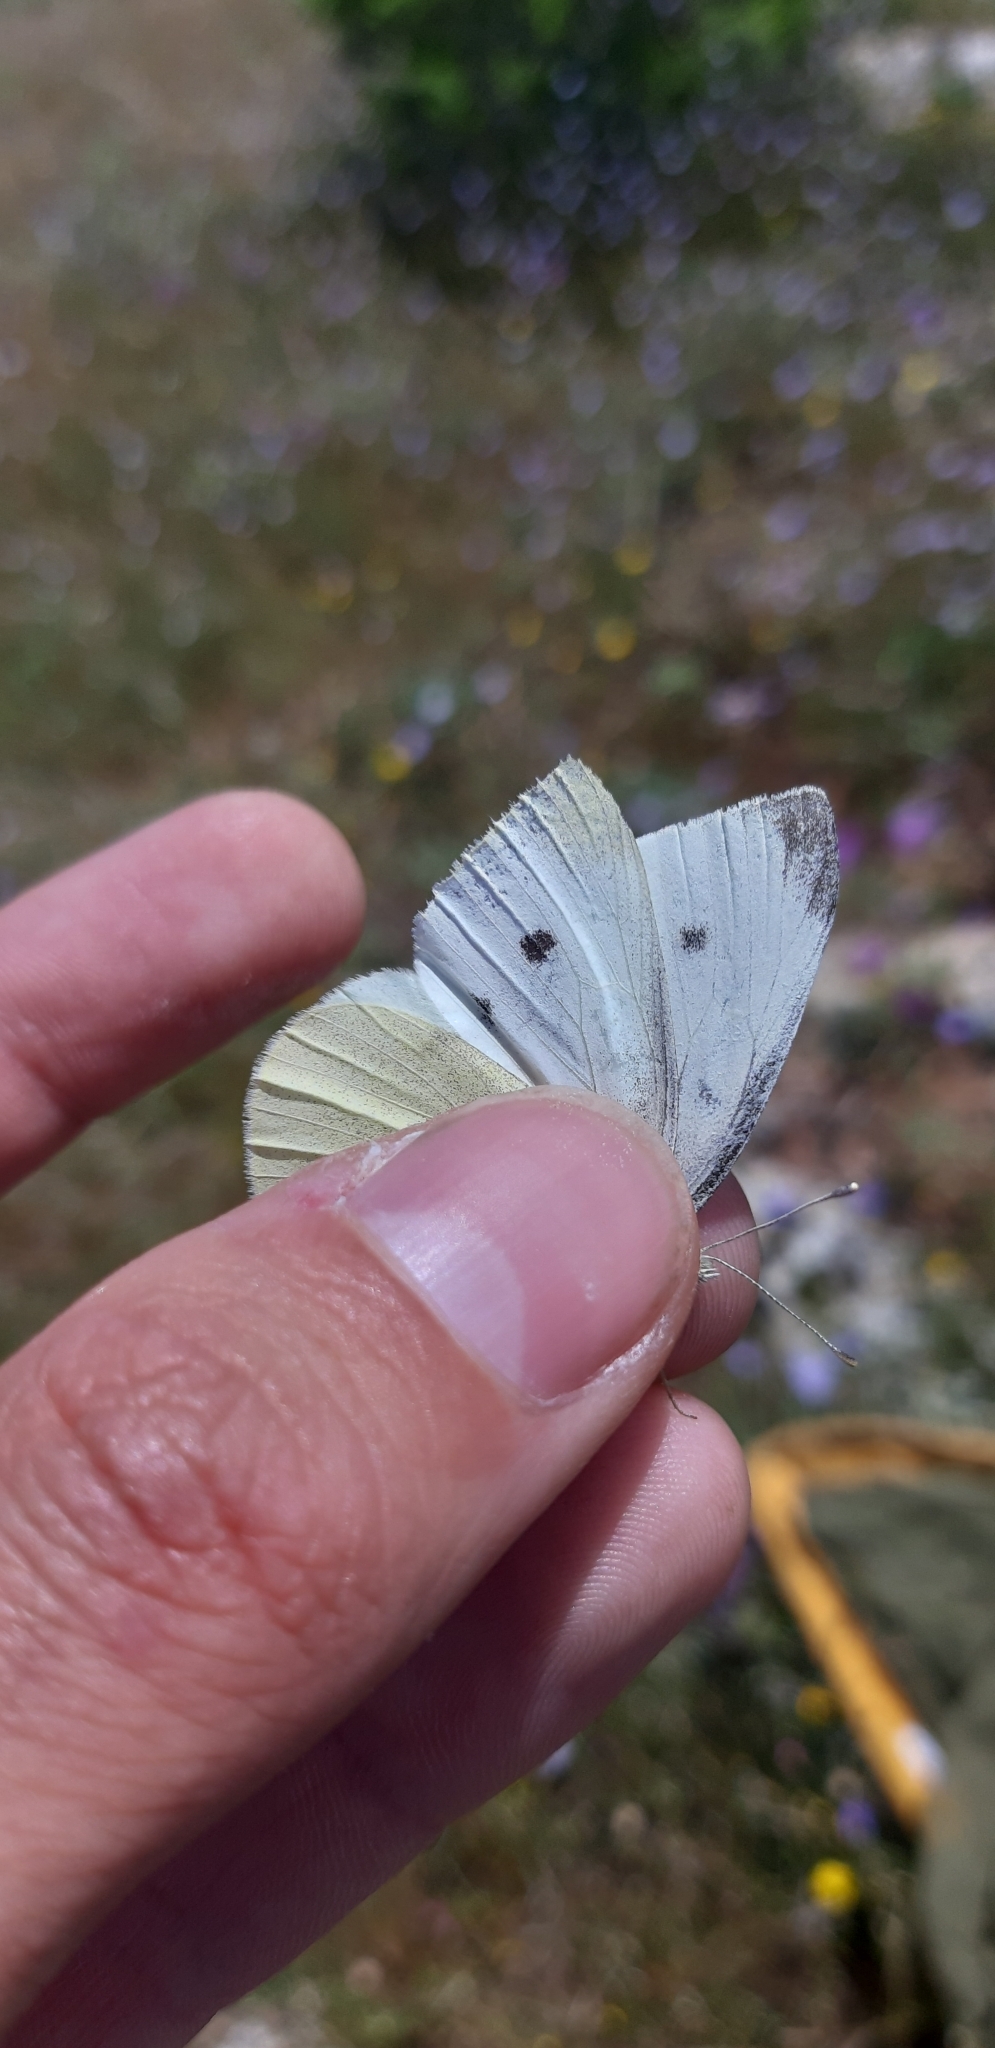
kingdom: Animalia
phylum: Arthropoda
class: Insecta
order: Lepidoptera
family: Pieridae
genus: Pieris
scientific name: Pieris rapae
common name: Small white
